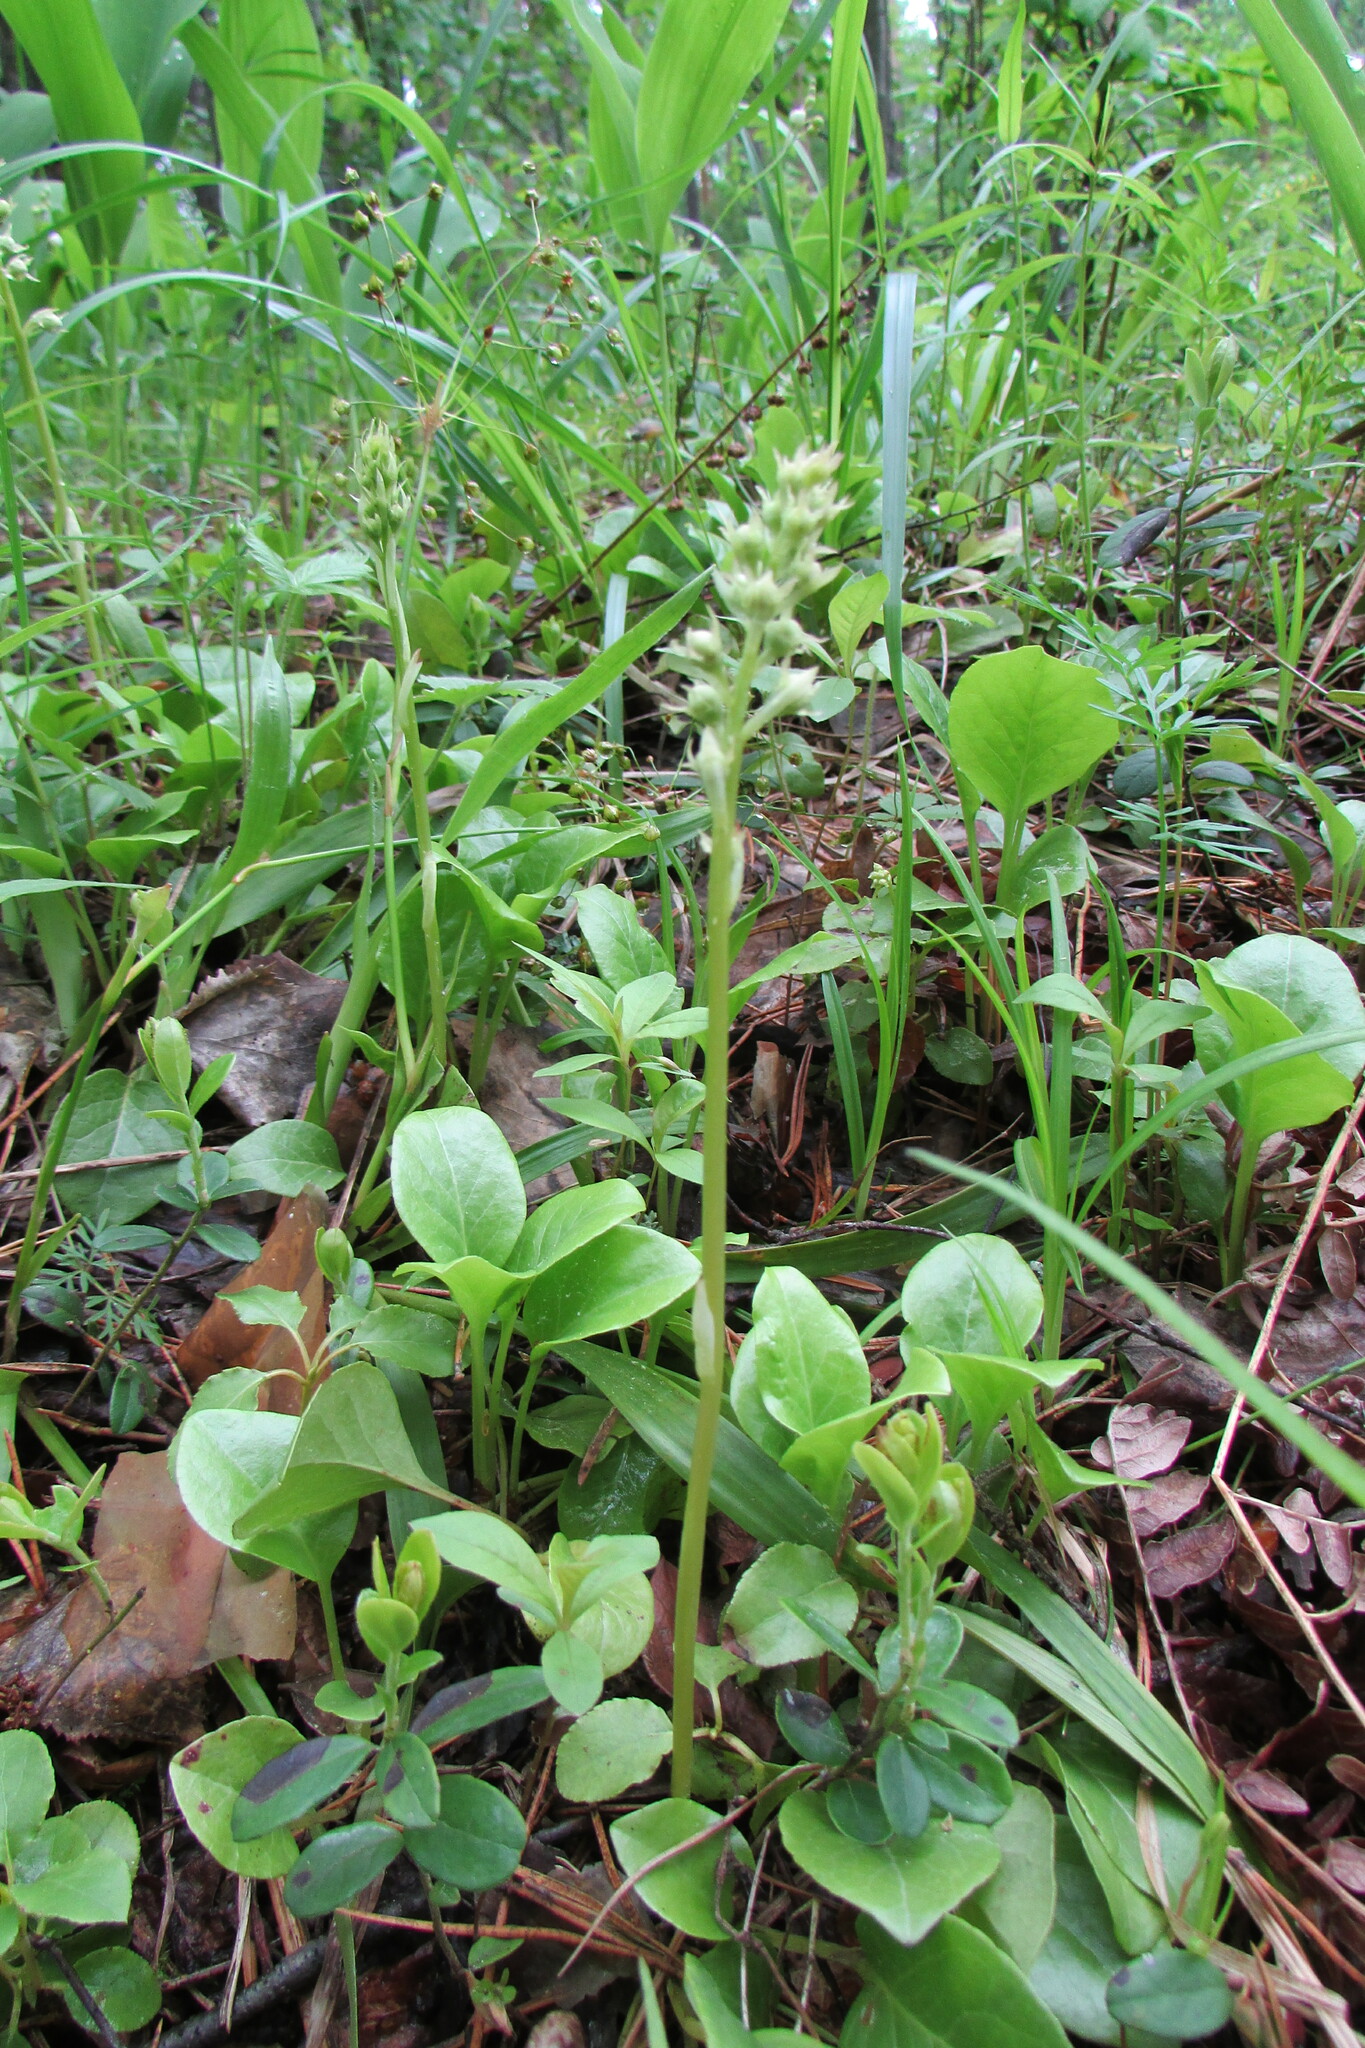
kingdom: Plantae
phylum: Tracheophyta
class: Magnoliopsida
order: Ericales
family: Ericaceae
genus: Pyrola
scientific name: Pyrola rotundifolia
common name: Round-leaved wintergreen
